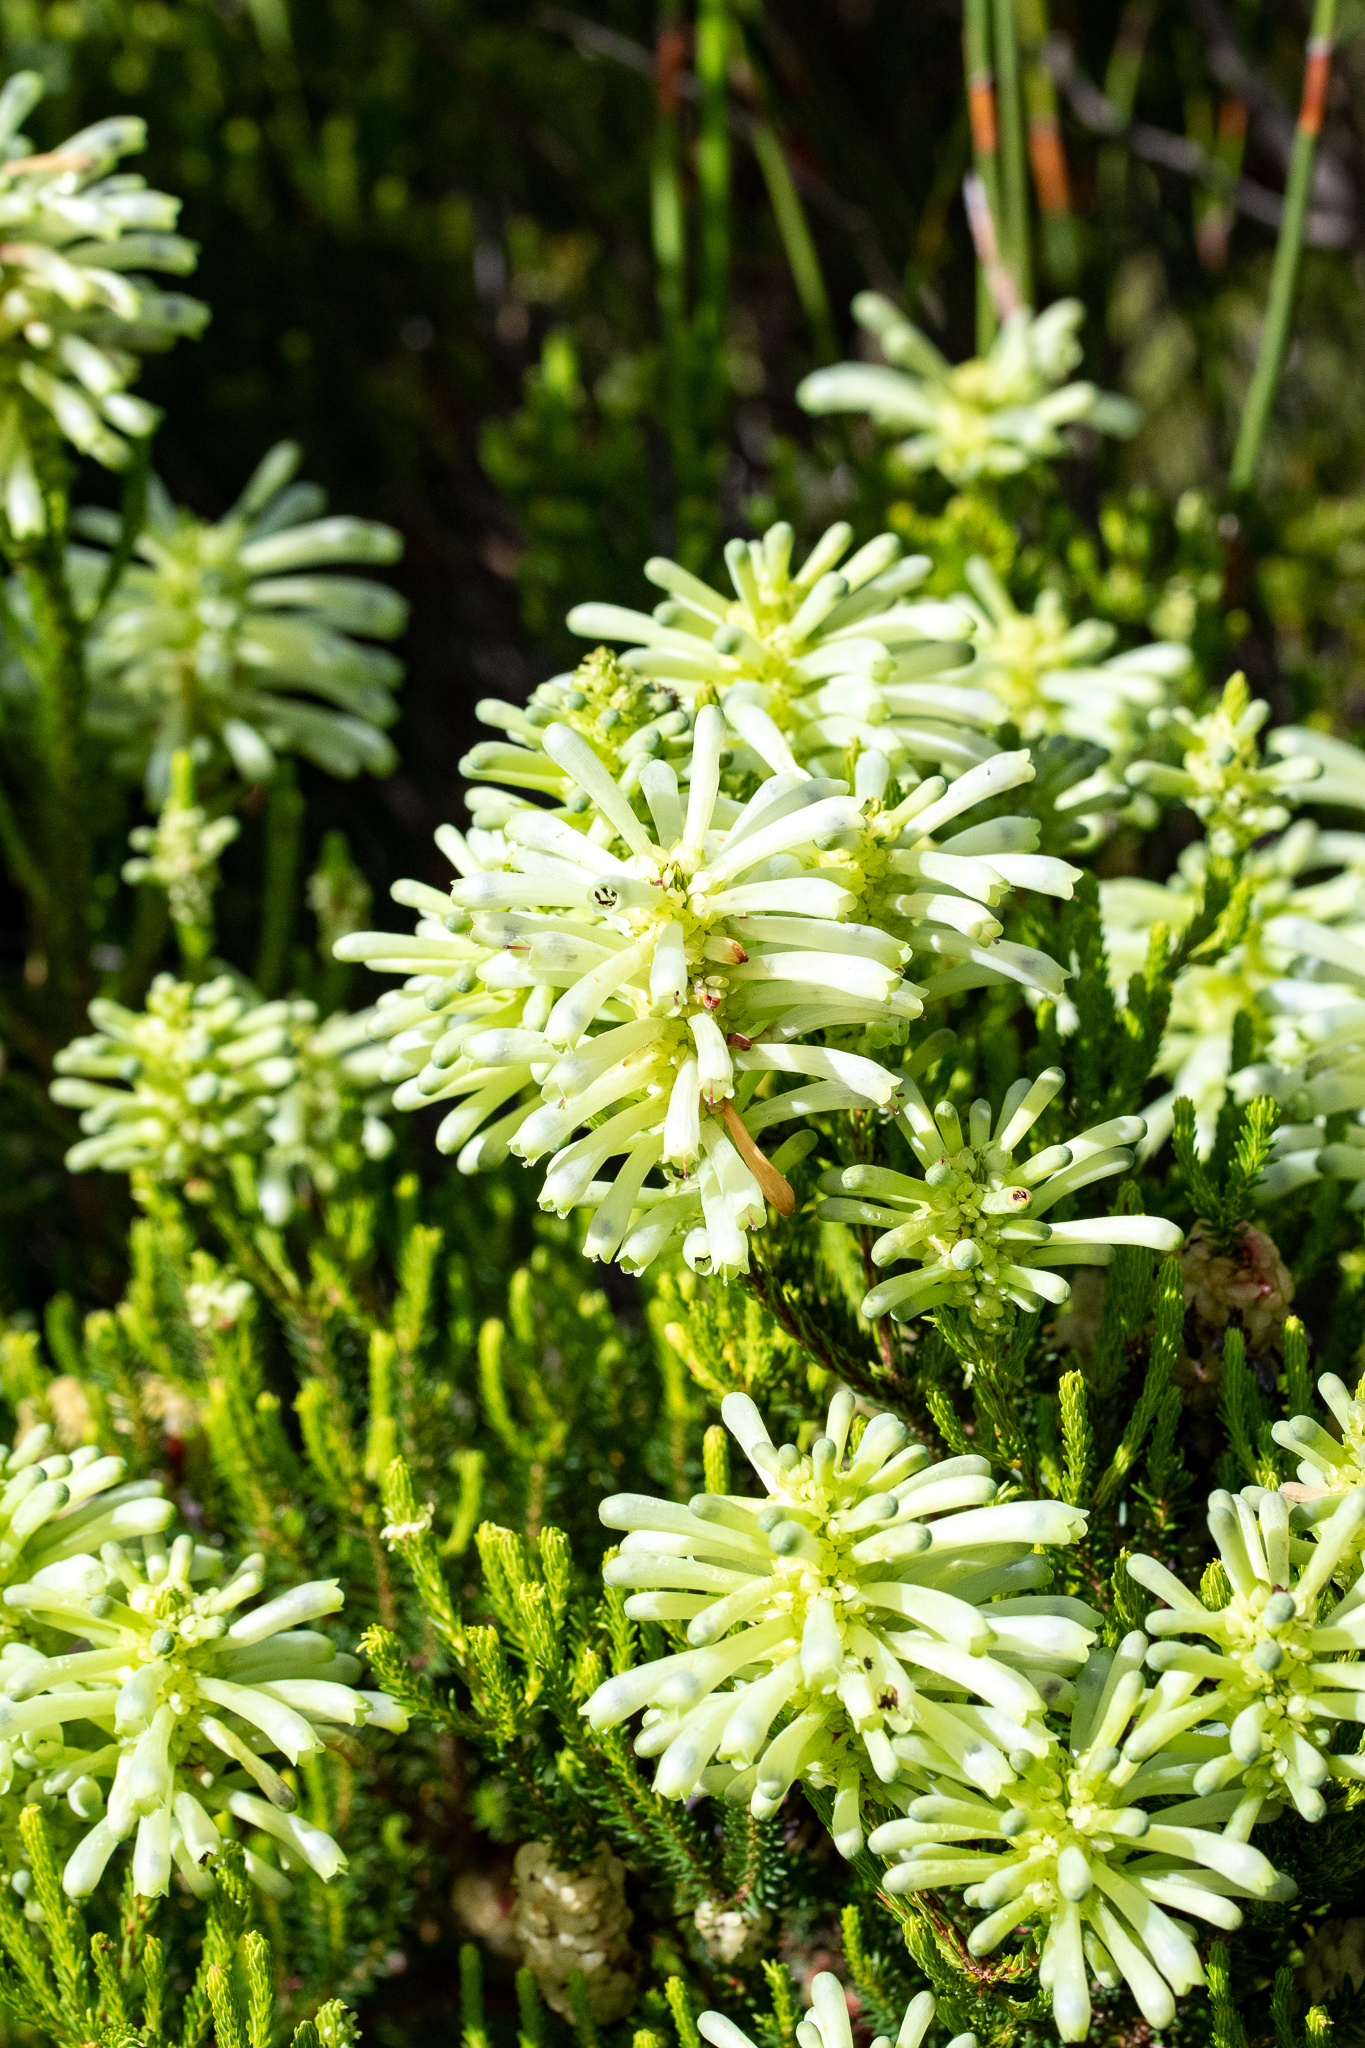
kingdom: Plantae
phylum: Tracheophyta
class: Magnoliopsida
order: Ericales
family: Ericaceae
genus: Erica
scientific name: Erica sessiliflora
